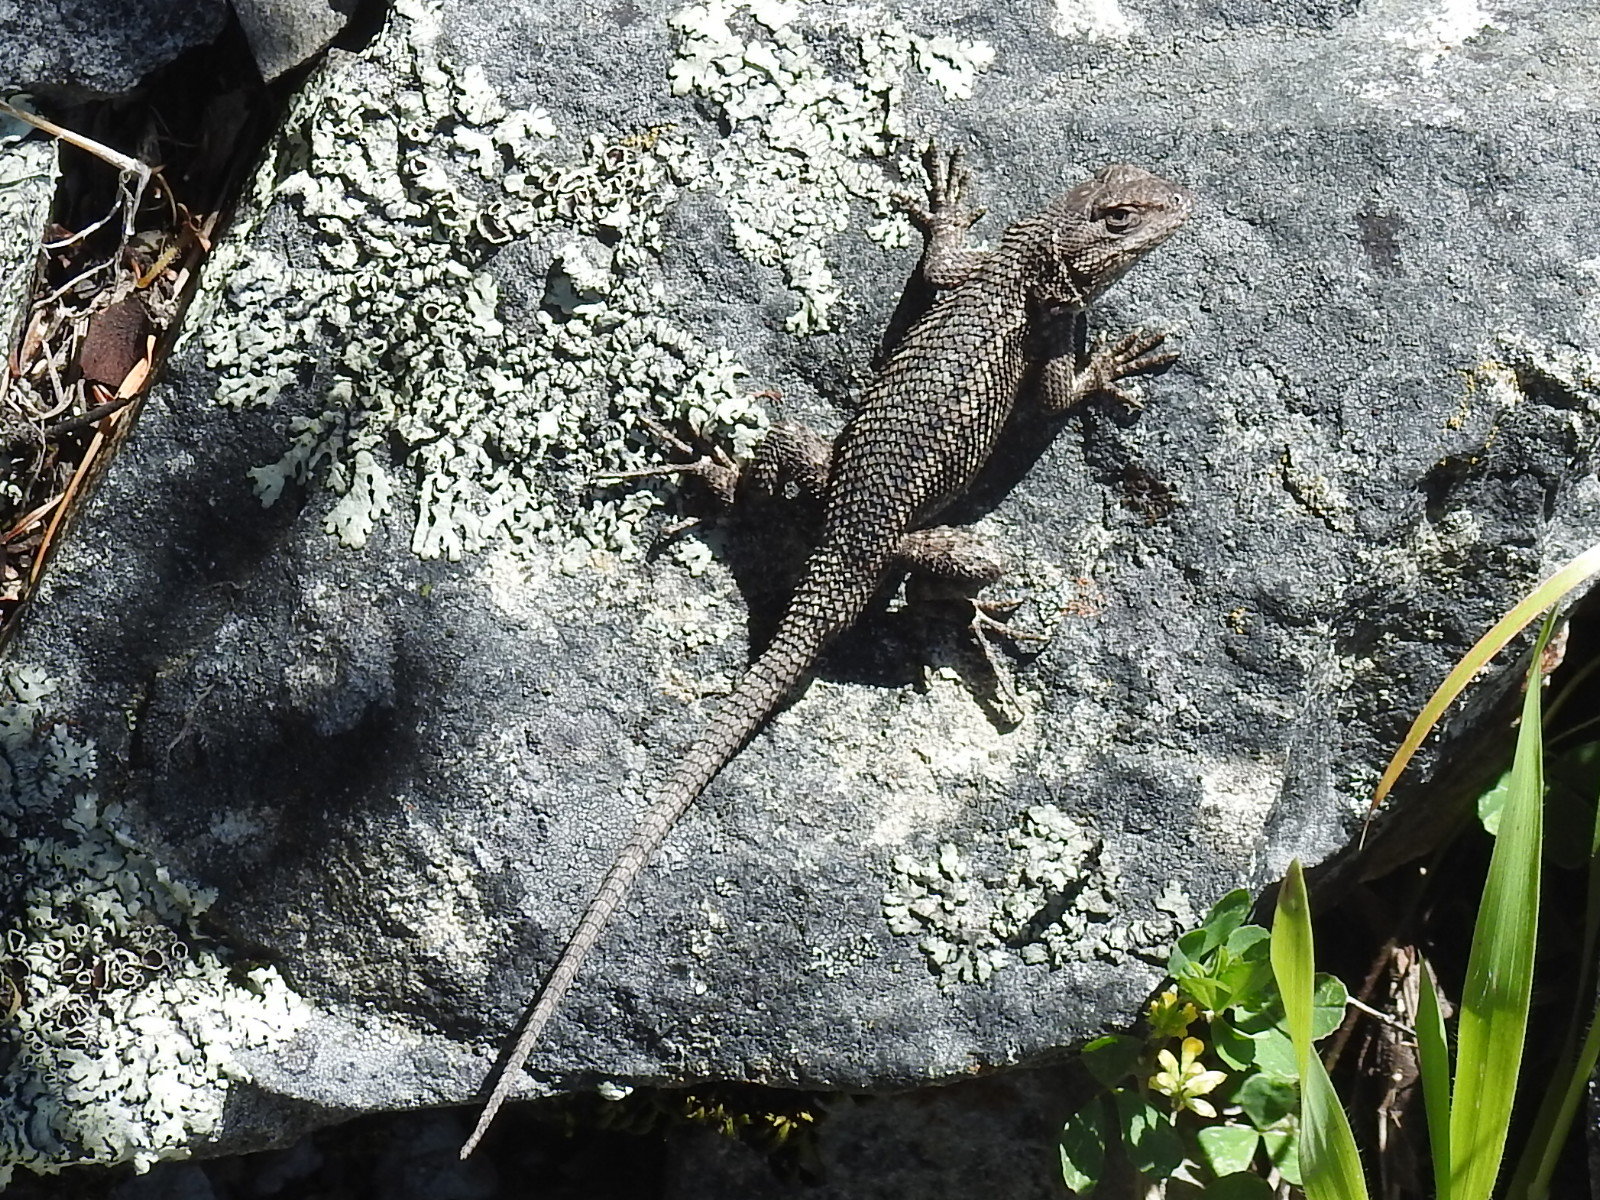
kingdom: Animalia
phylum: Chordata
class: Squamata
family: Phrynosomatidae
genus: Sceloporus
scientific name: Sceloporus occidentalis
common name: Western fence lizard
